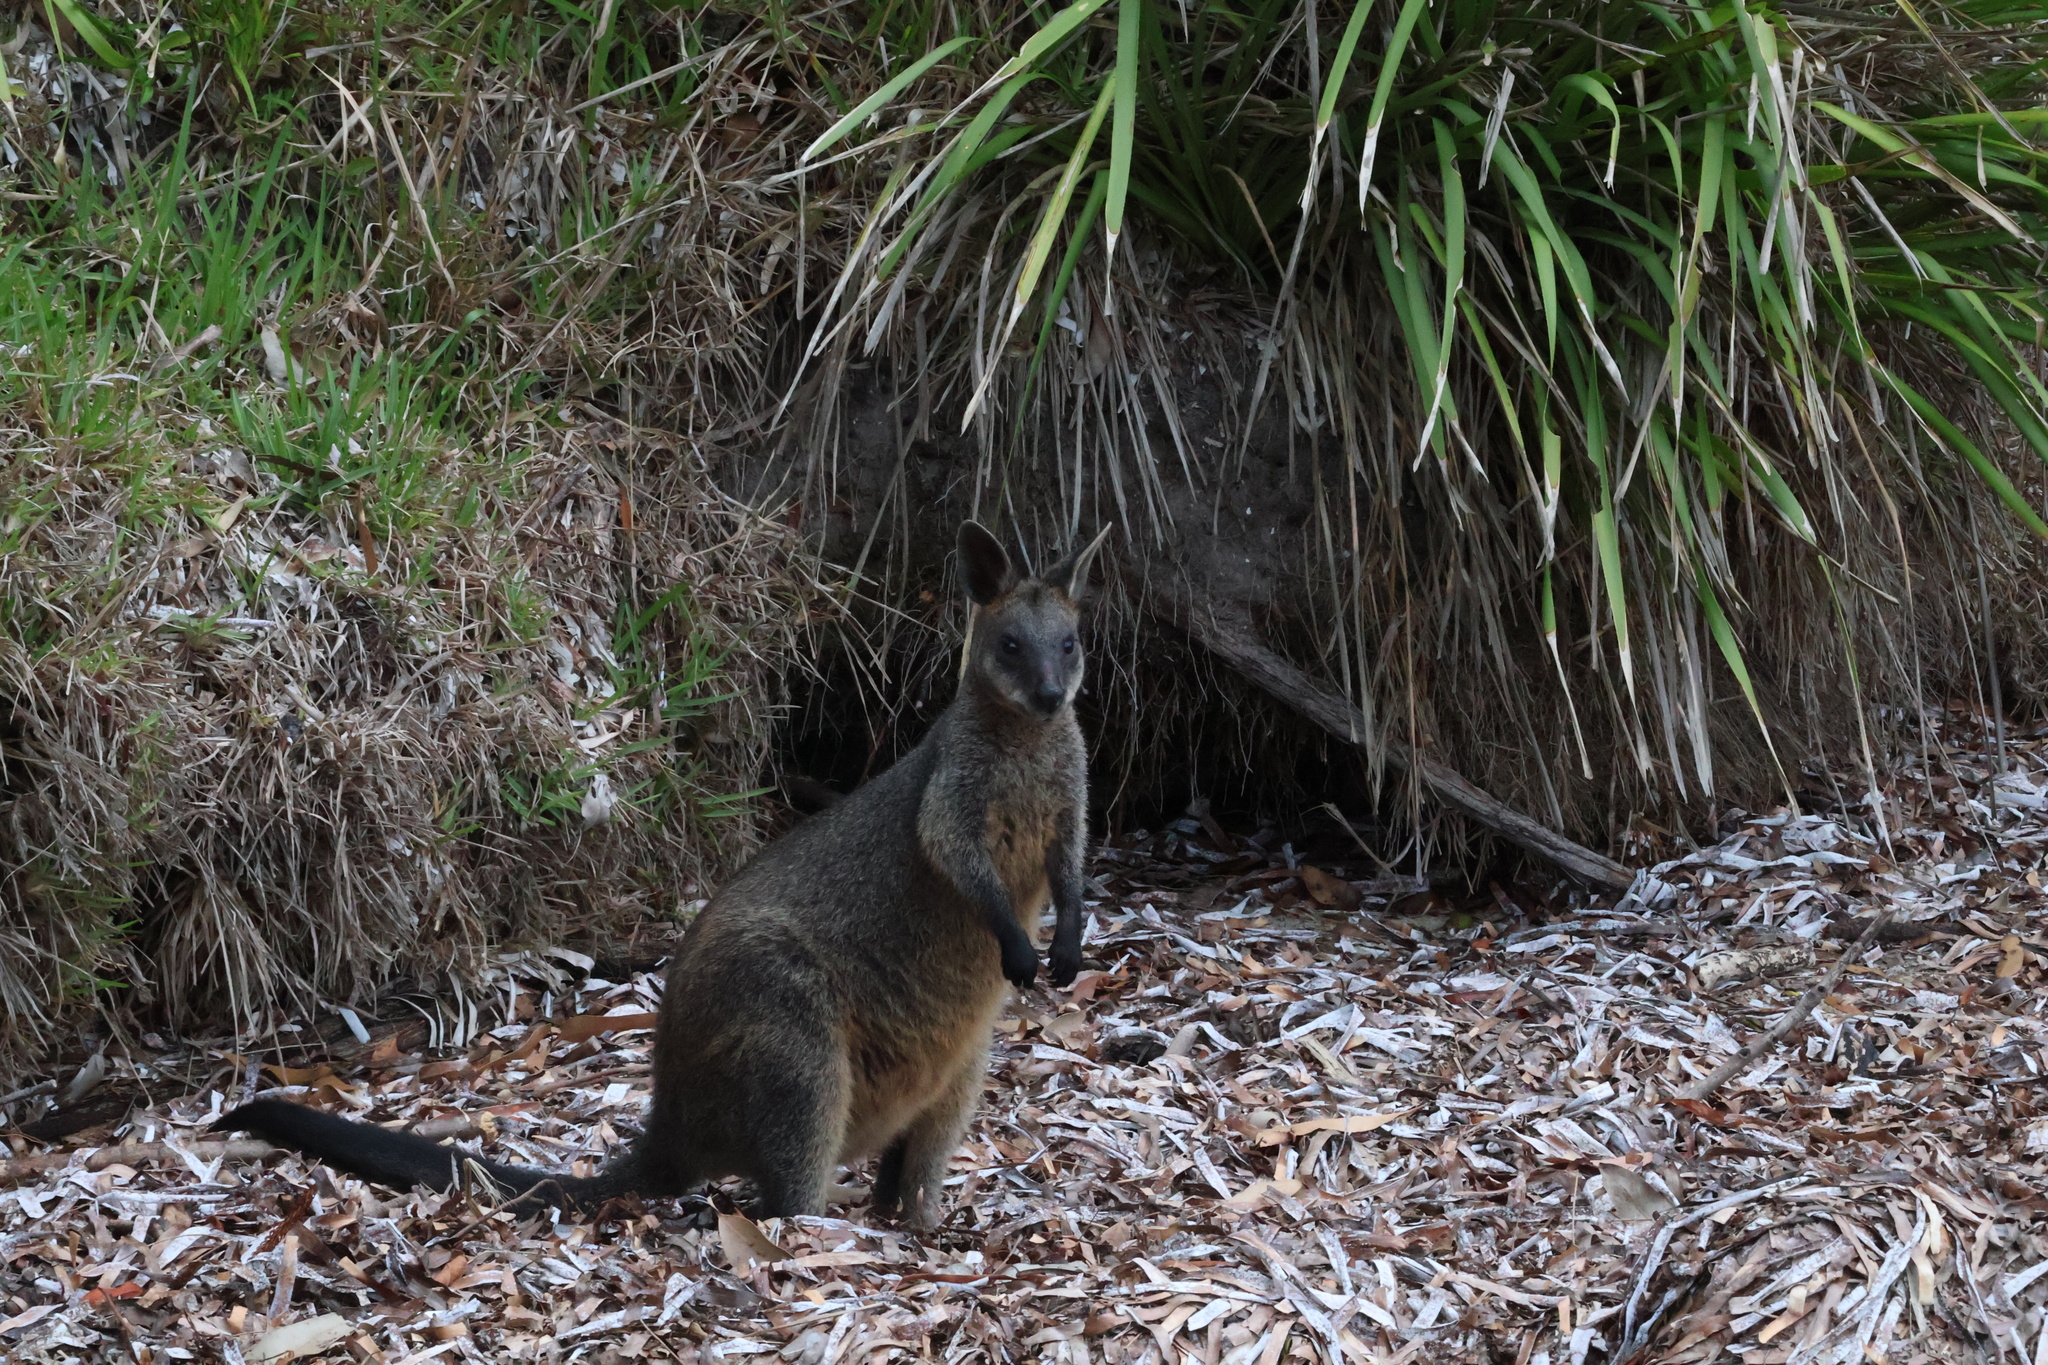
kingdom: Animalia
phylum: Chordata
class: Mammalia
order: Diprotodontia
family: Macropodidae
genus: Wallabia
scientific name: Wallabia bicolor
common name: Swamp wallaby
